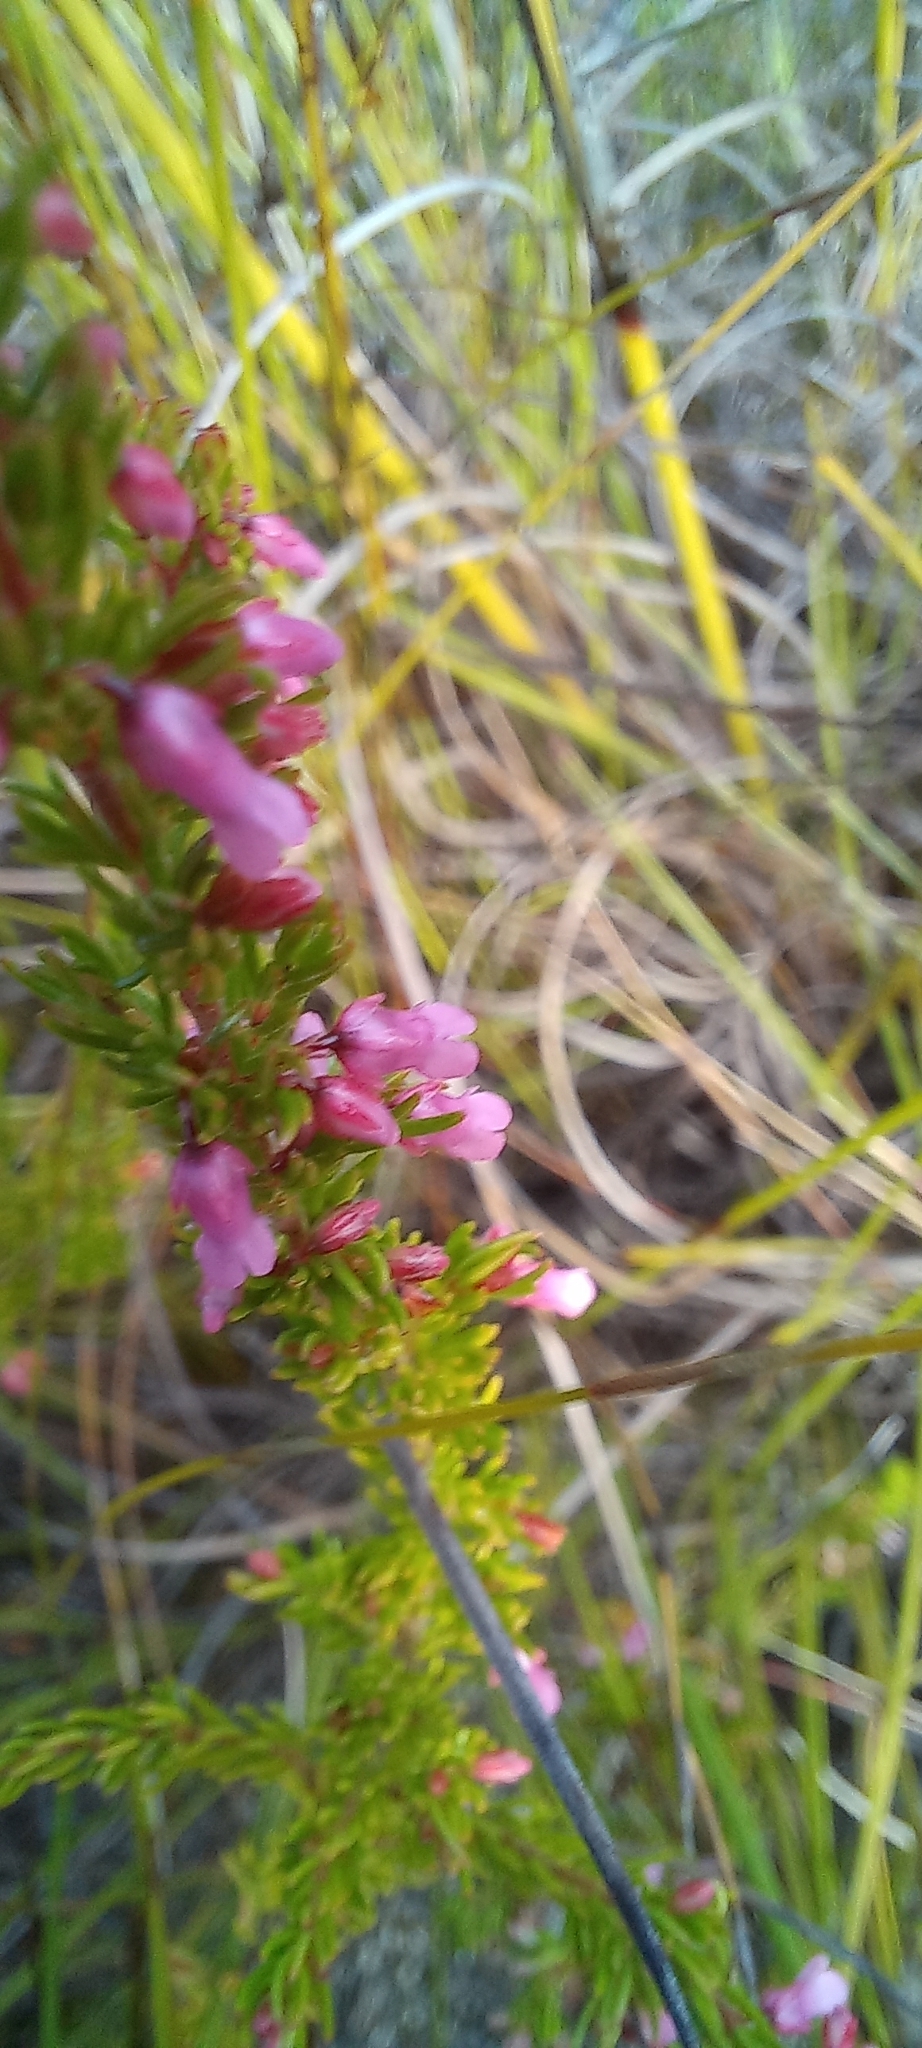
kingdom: Plantae
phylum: Tracheophyta
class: Magnoliopsida
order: Ericales
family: Ericaceae
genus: Erica
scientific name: Erica intervallaris
